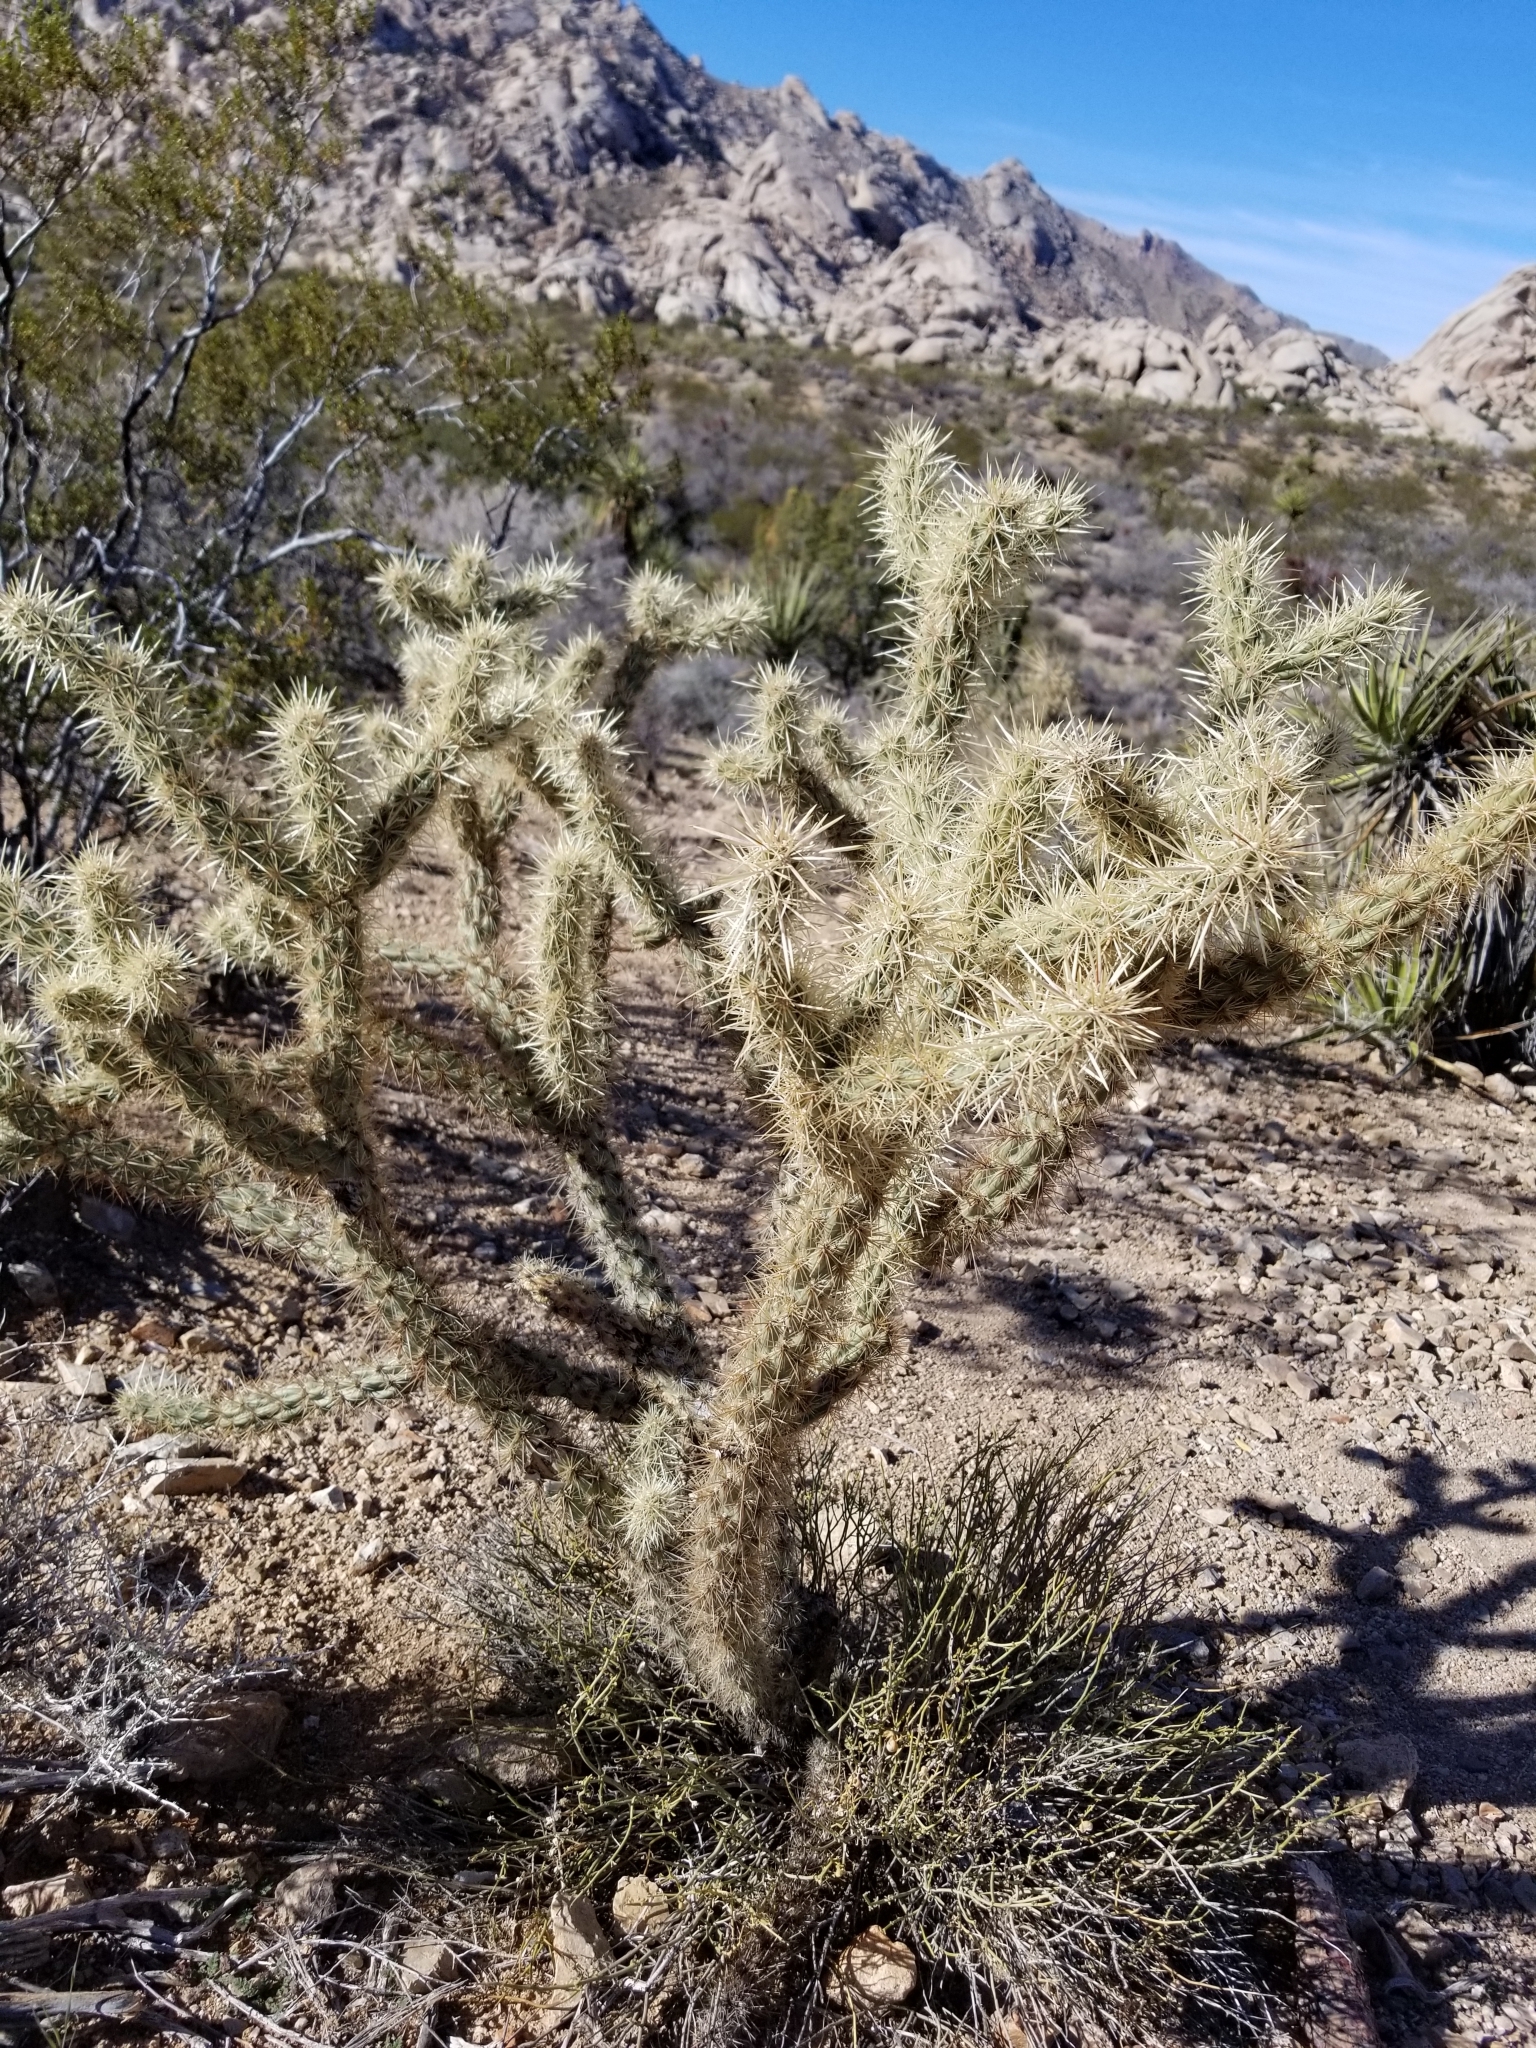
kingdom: Plantae
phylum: Tracheophyta
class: Magnoliopsida
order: Caryophyllales
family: Cactaceae
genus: Cylindropuntia
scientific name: Cylindropuntia acanthocarpa
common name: Buckhorn cholla
